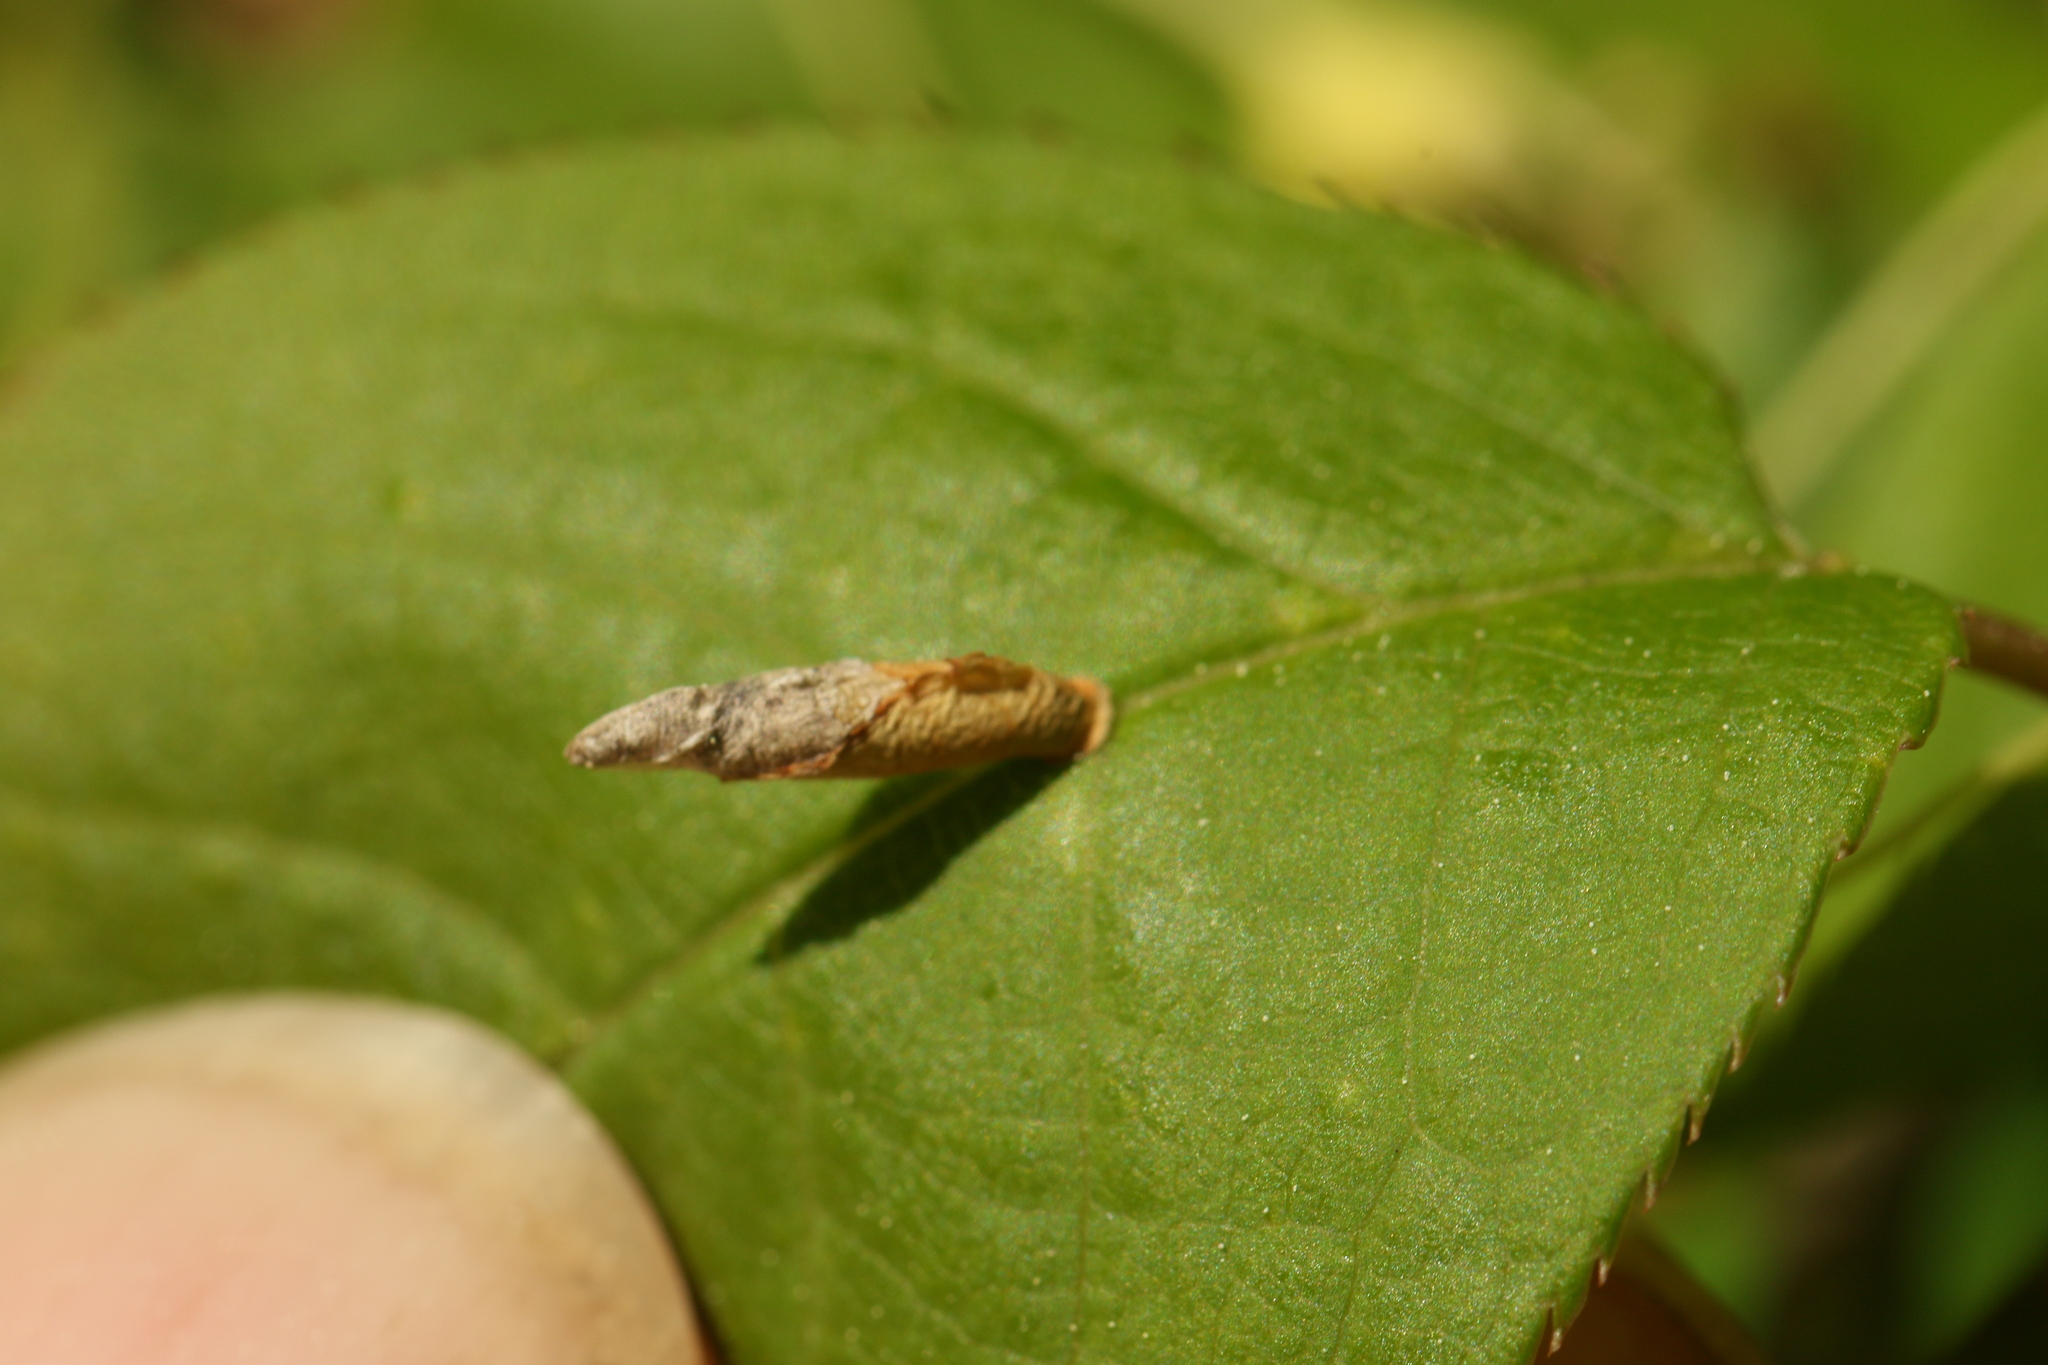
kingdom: Animalia
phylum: Arthropoda
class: Insecta
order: Lepidoptera
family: Coleophoridae
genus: Coleophora
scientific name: Coleophora pruniella
